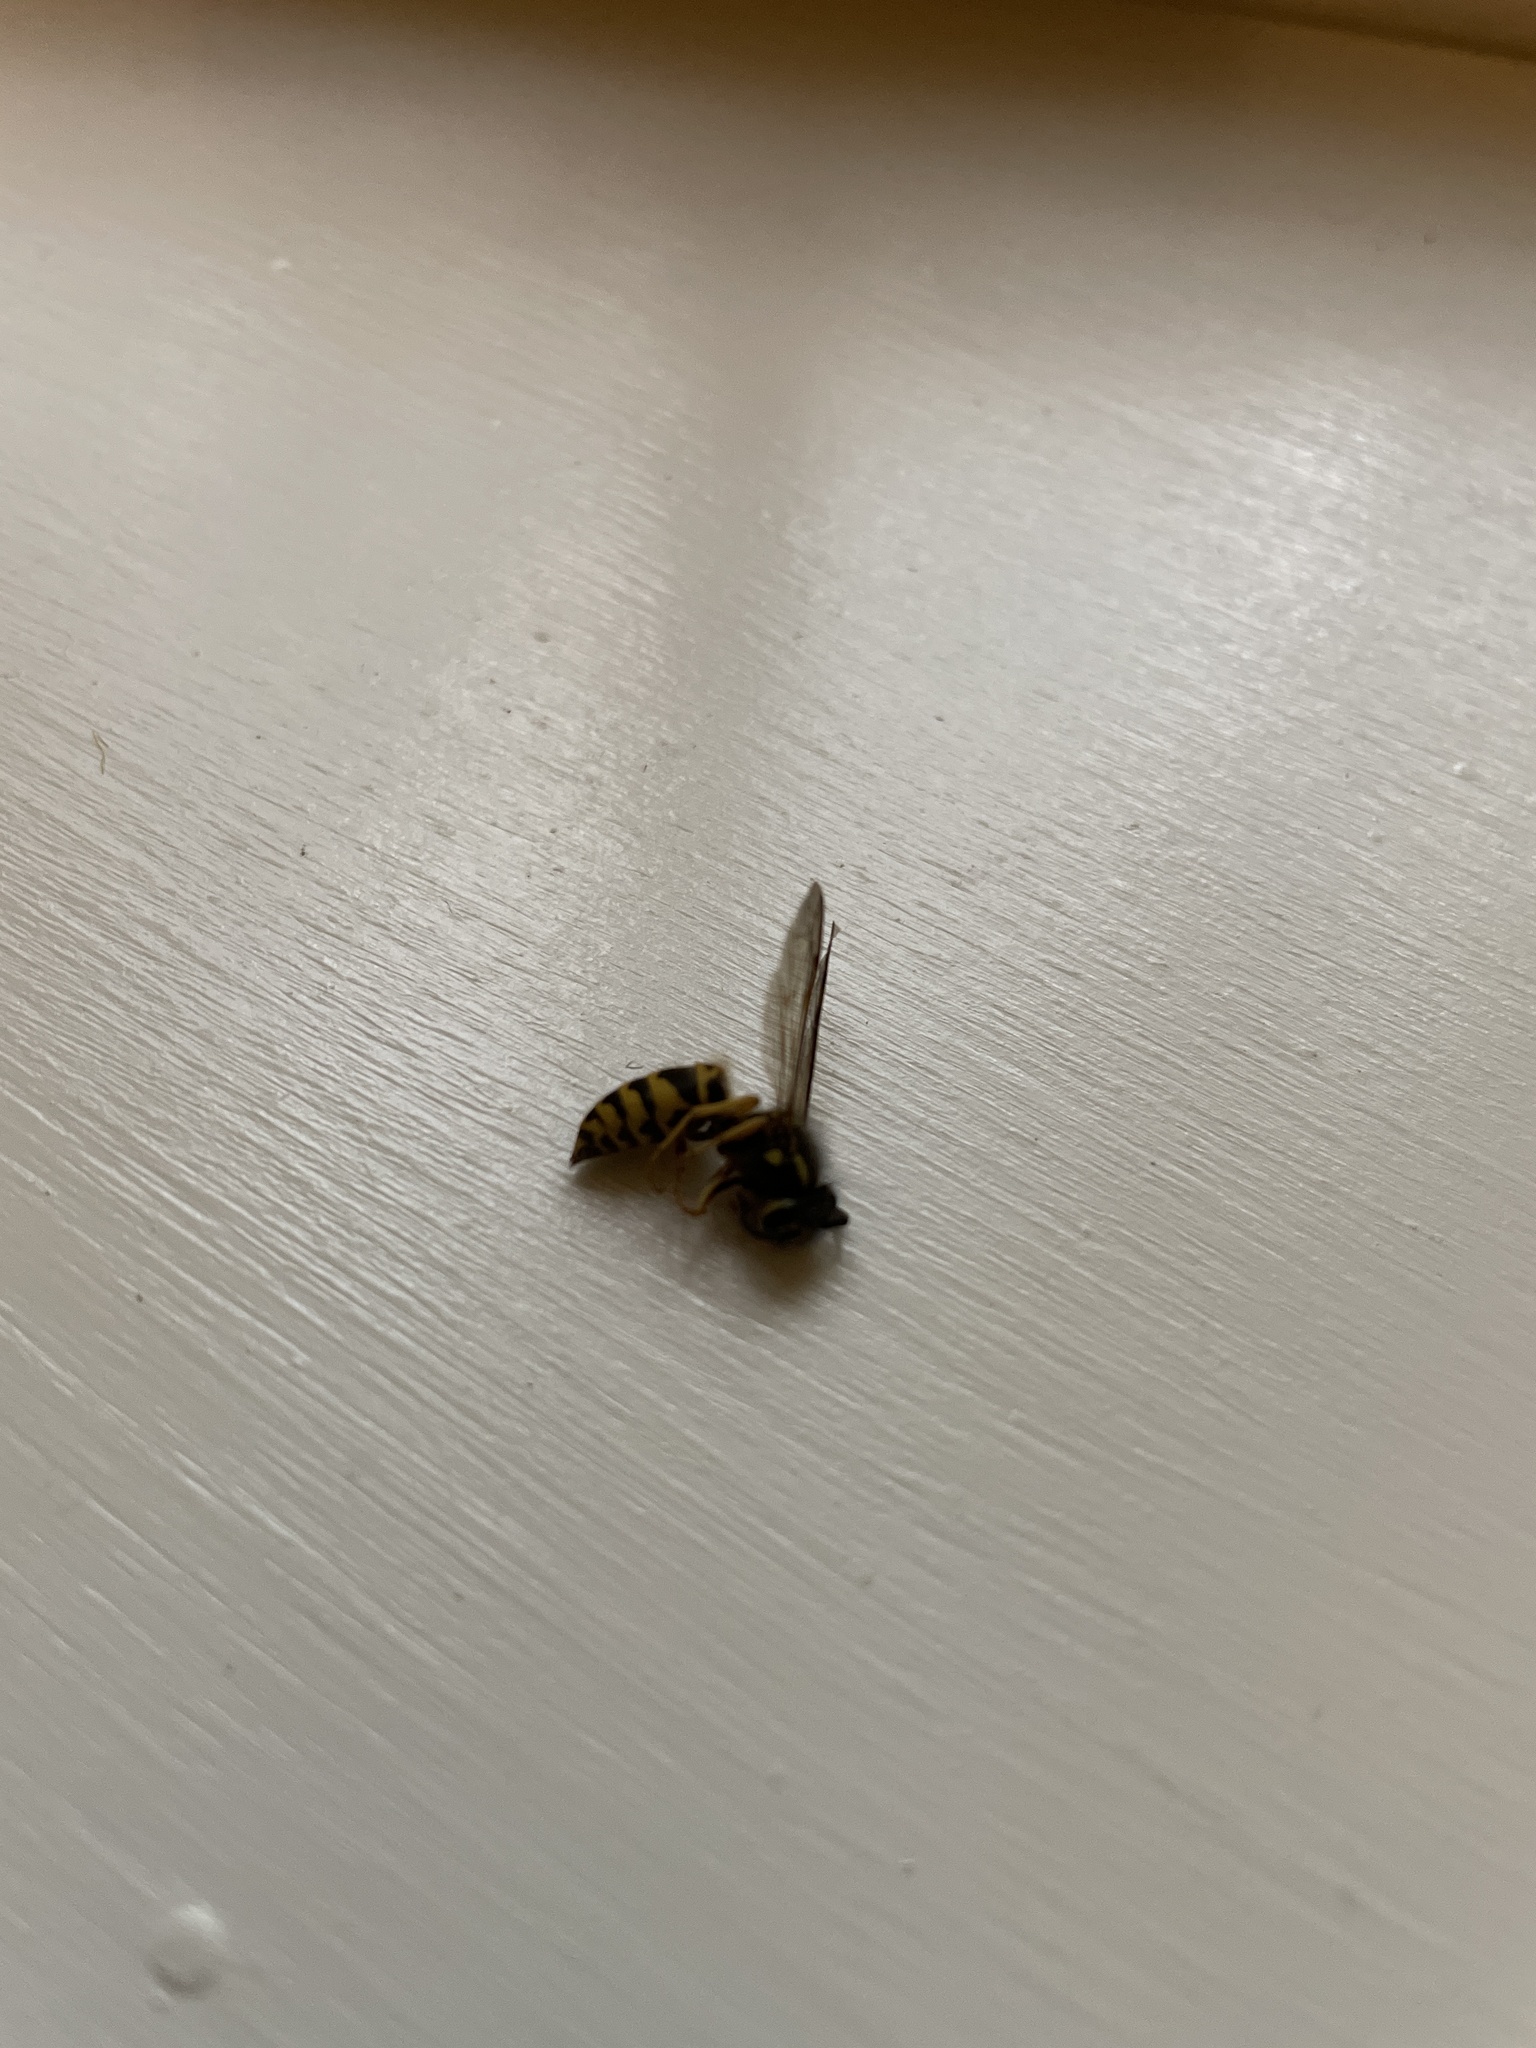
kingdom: Animalia
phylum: Arthropoda
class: Insecta
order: Hymenoptera
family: Vespidae
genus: Vespula
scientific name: Vespula maculifrons
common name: Eastern yellowjacket
